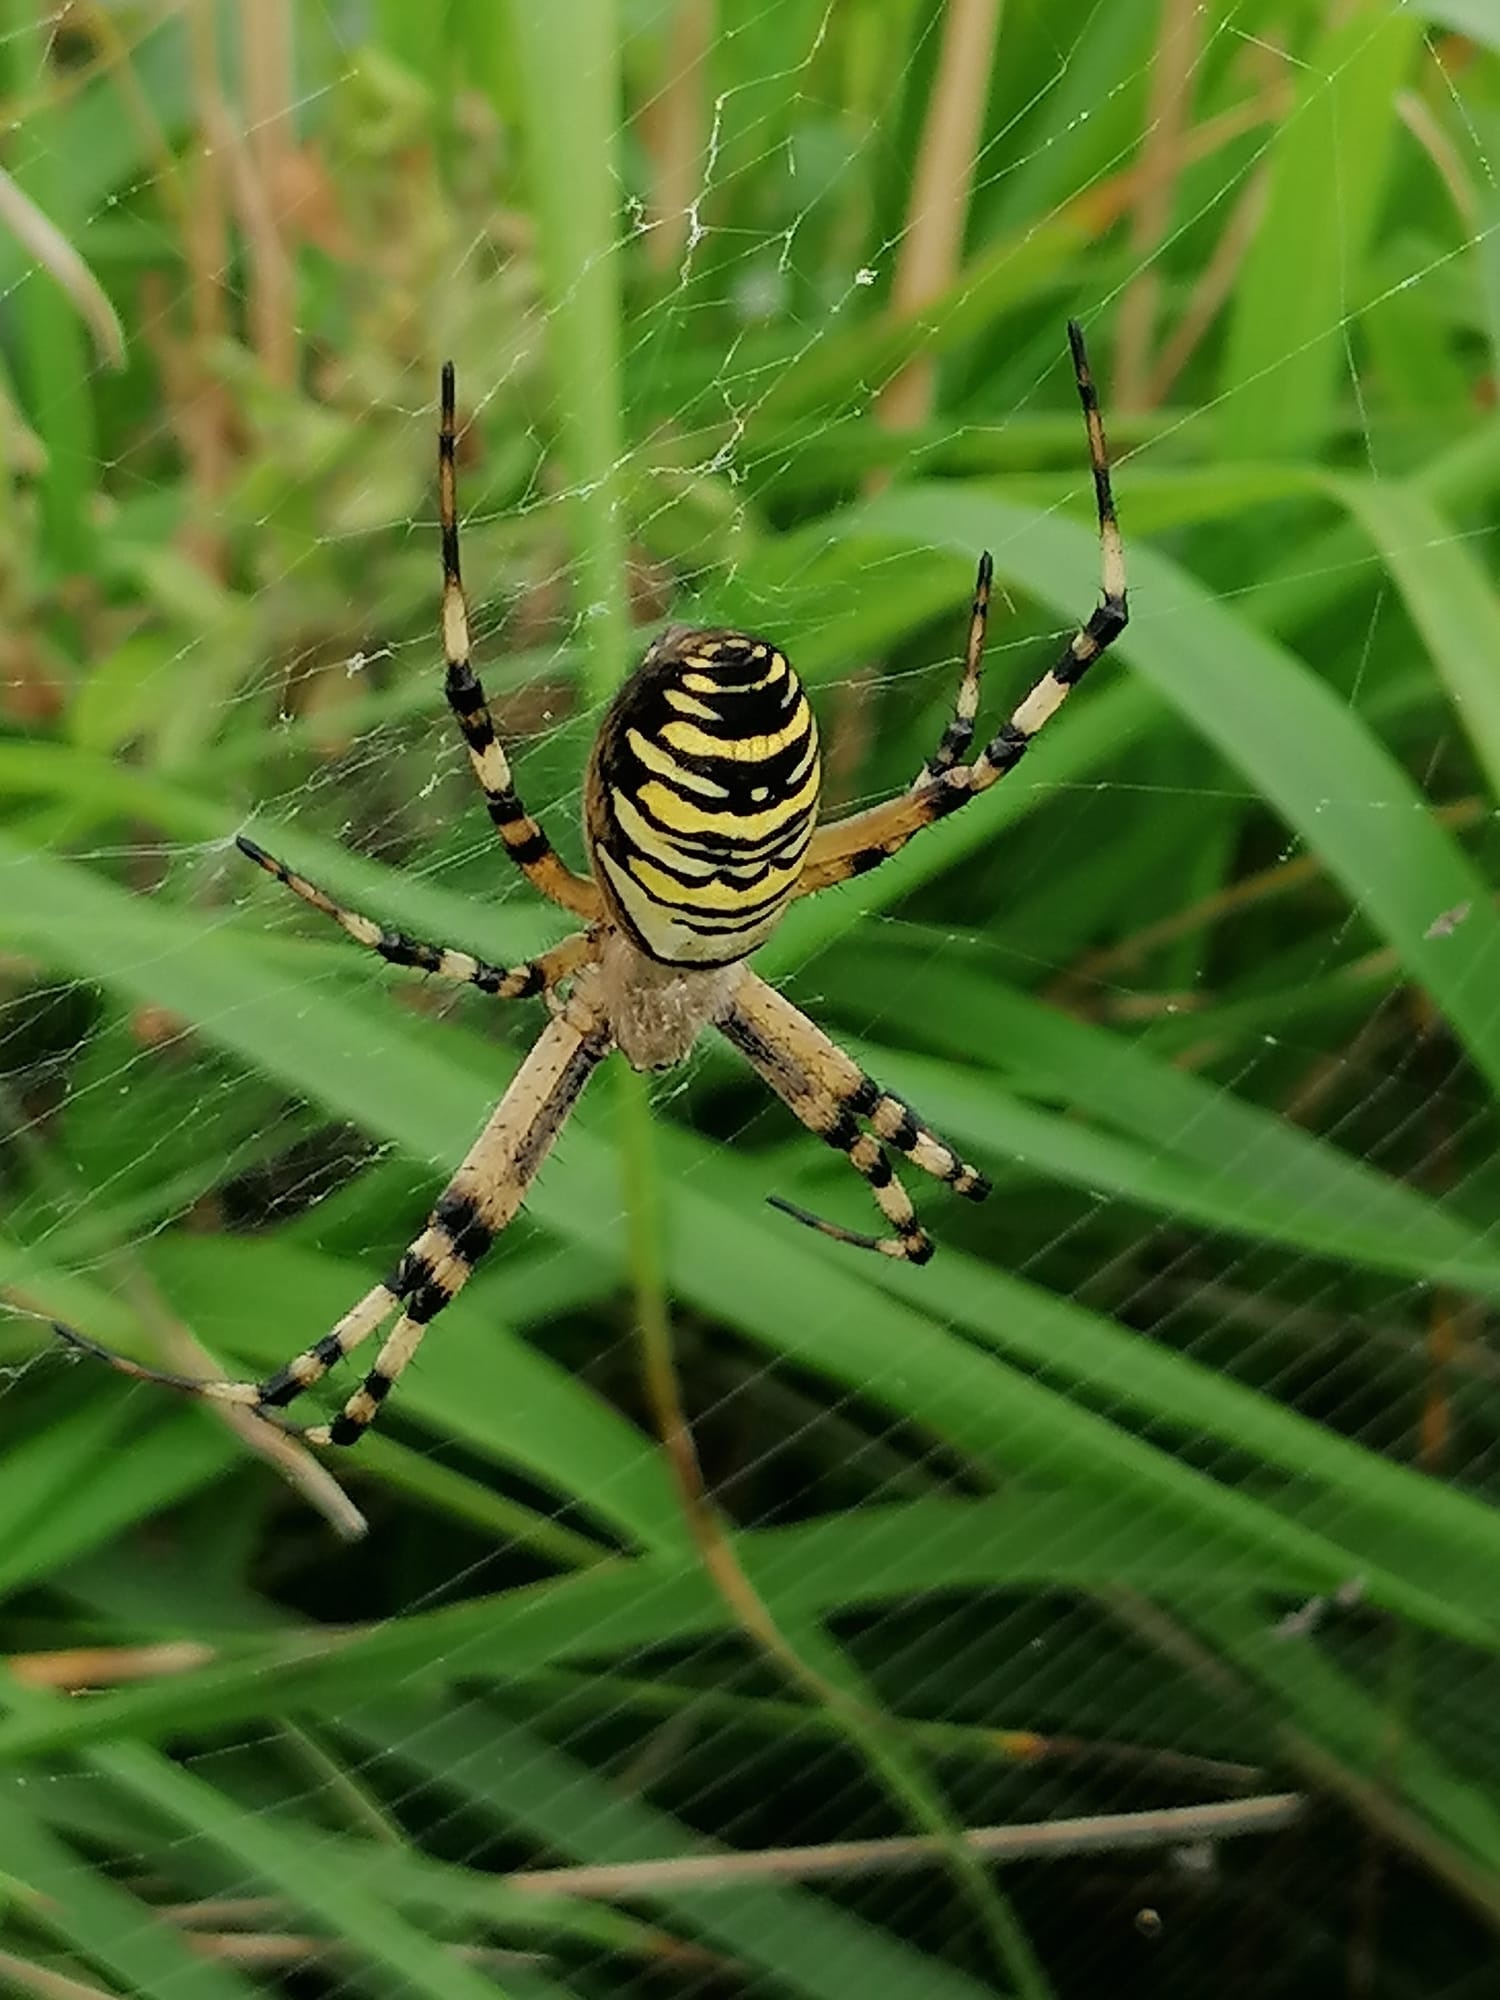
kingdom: Animalia
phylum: Arthropoda
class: Arachnida
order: Araneae
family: Araneidae
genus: Argiope
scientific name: Argiope bruennichi
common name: Wasp spider
